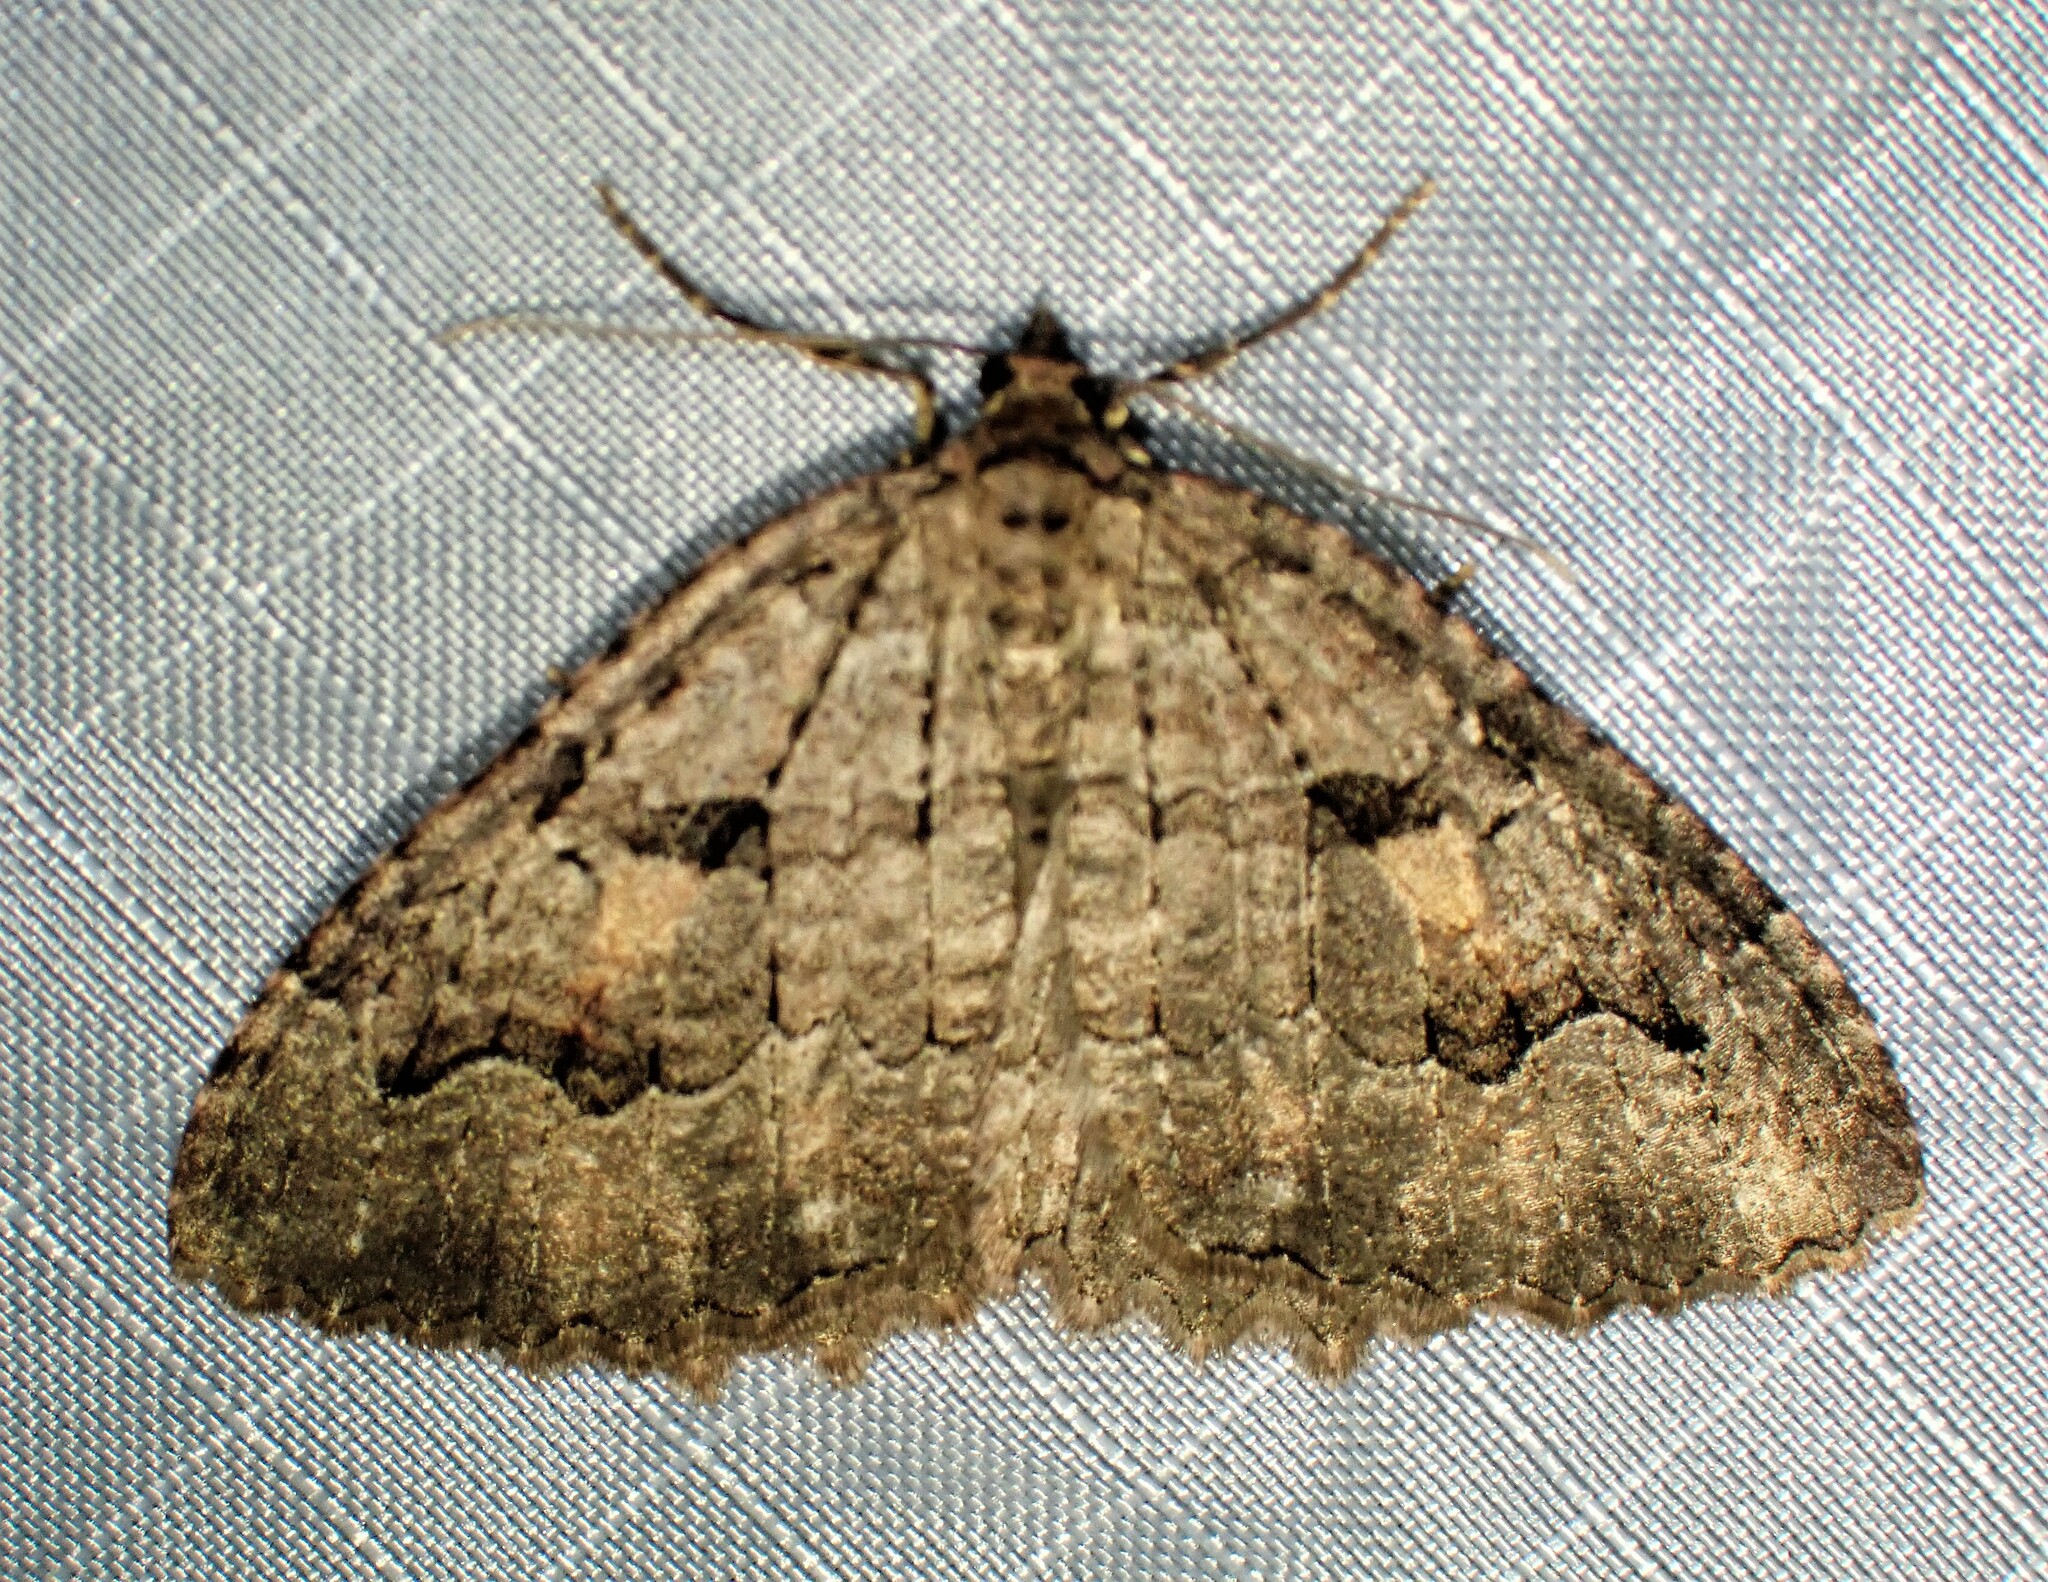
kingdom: Animalia
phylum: Arthropoda
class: Insecta
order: Lepidoptera
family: Geometridae
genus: Triphosa
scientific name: Triphosa haesitata
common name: Tissue moth
